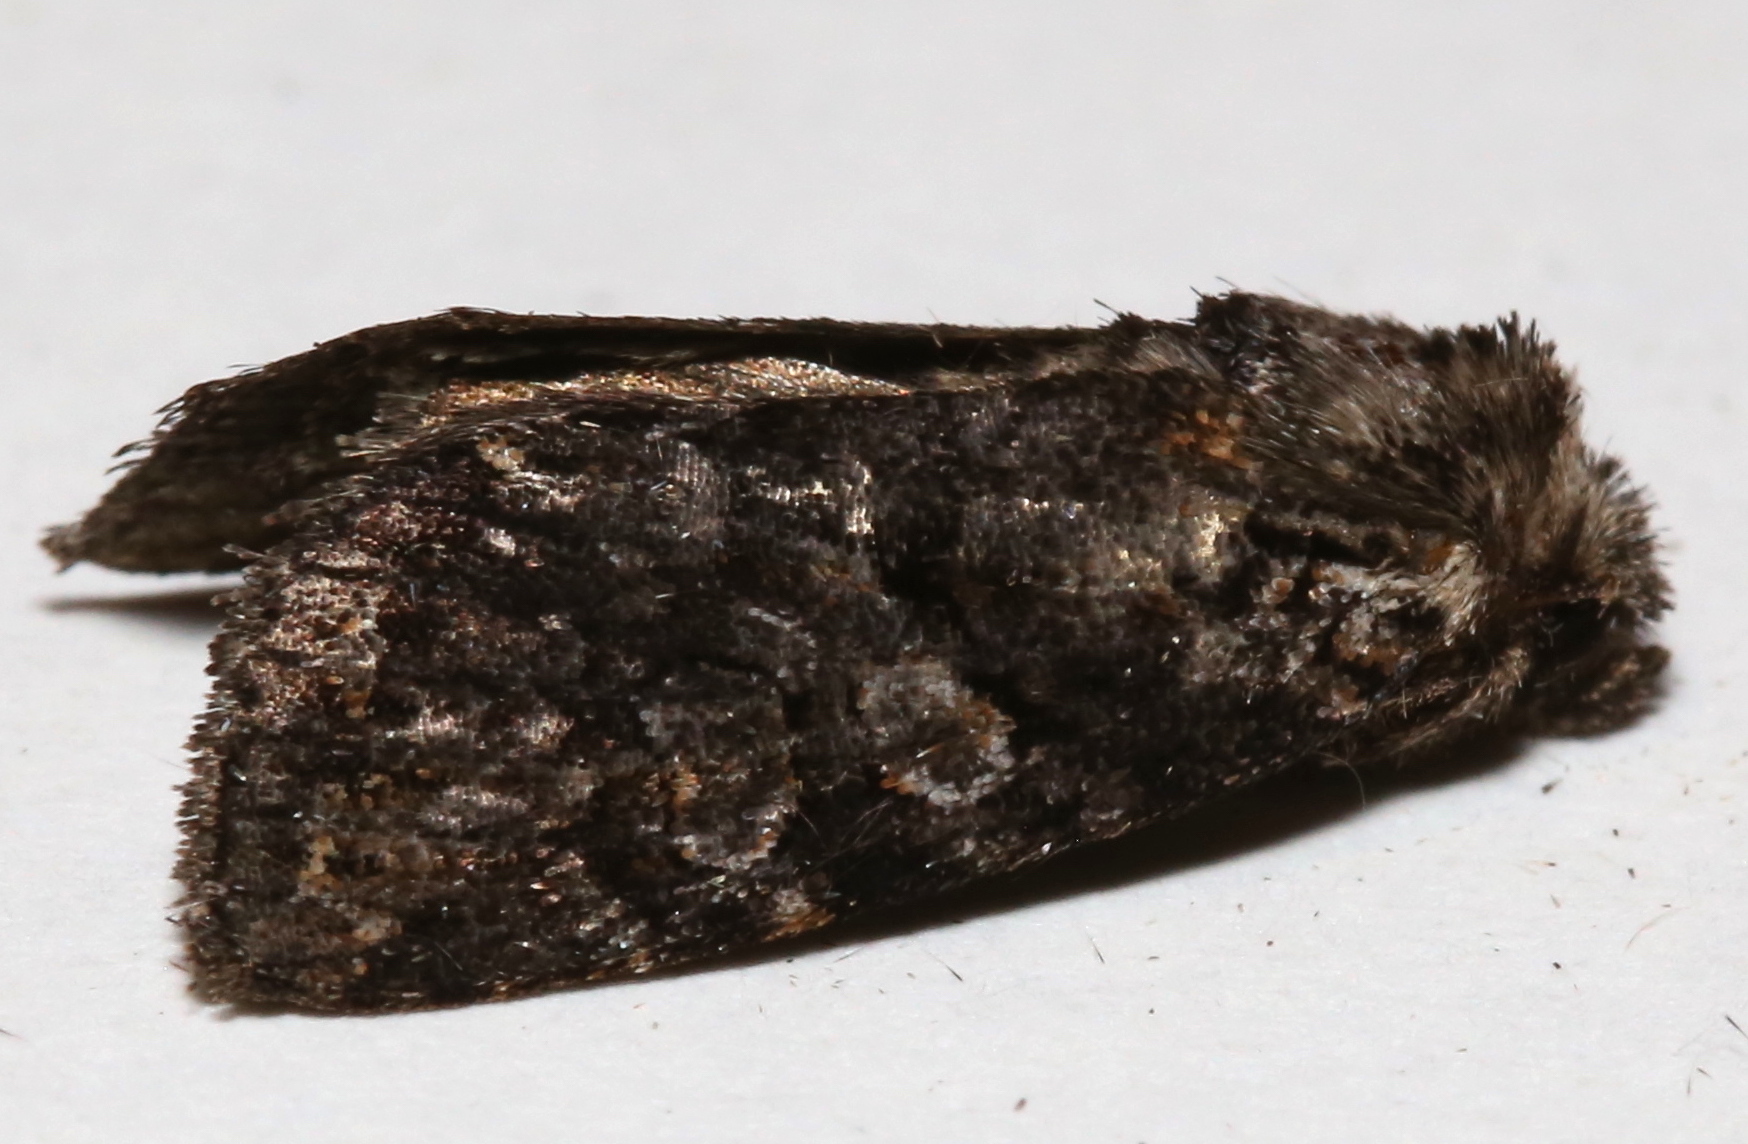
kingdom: Animalia
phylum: Arthropoda
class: Insecta
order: Lepidoptera
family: Noctuidae
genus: Orthodes
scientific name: Orthodes detracta
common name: Disparaged arches moth
